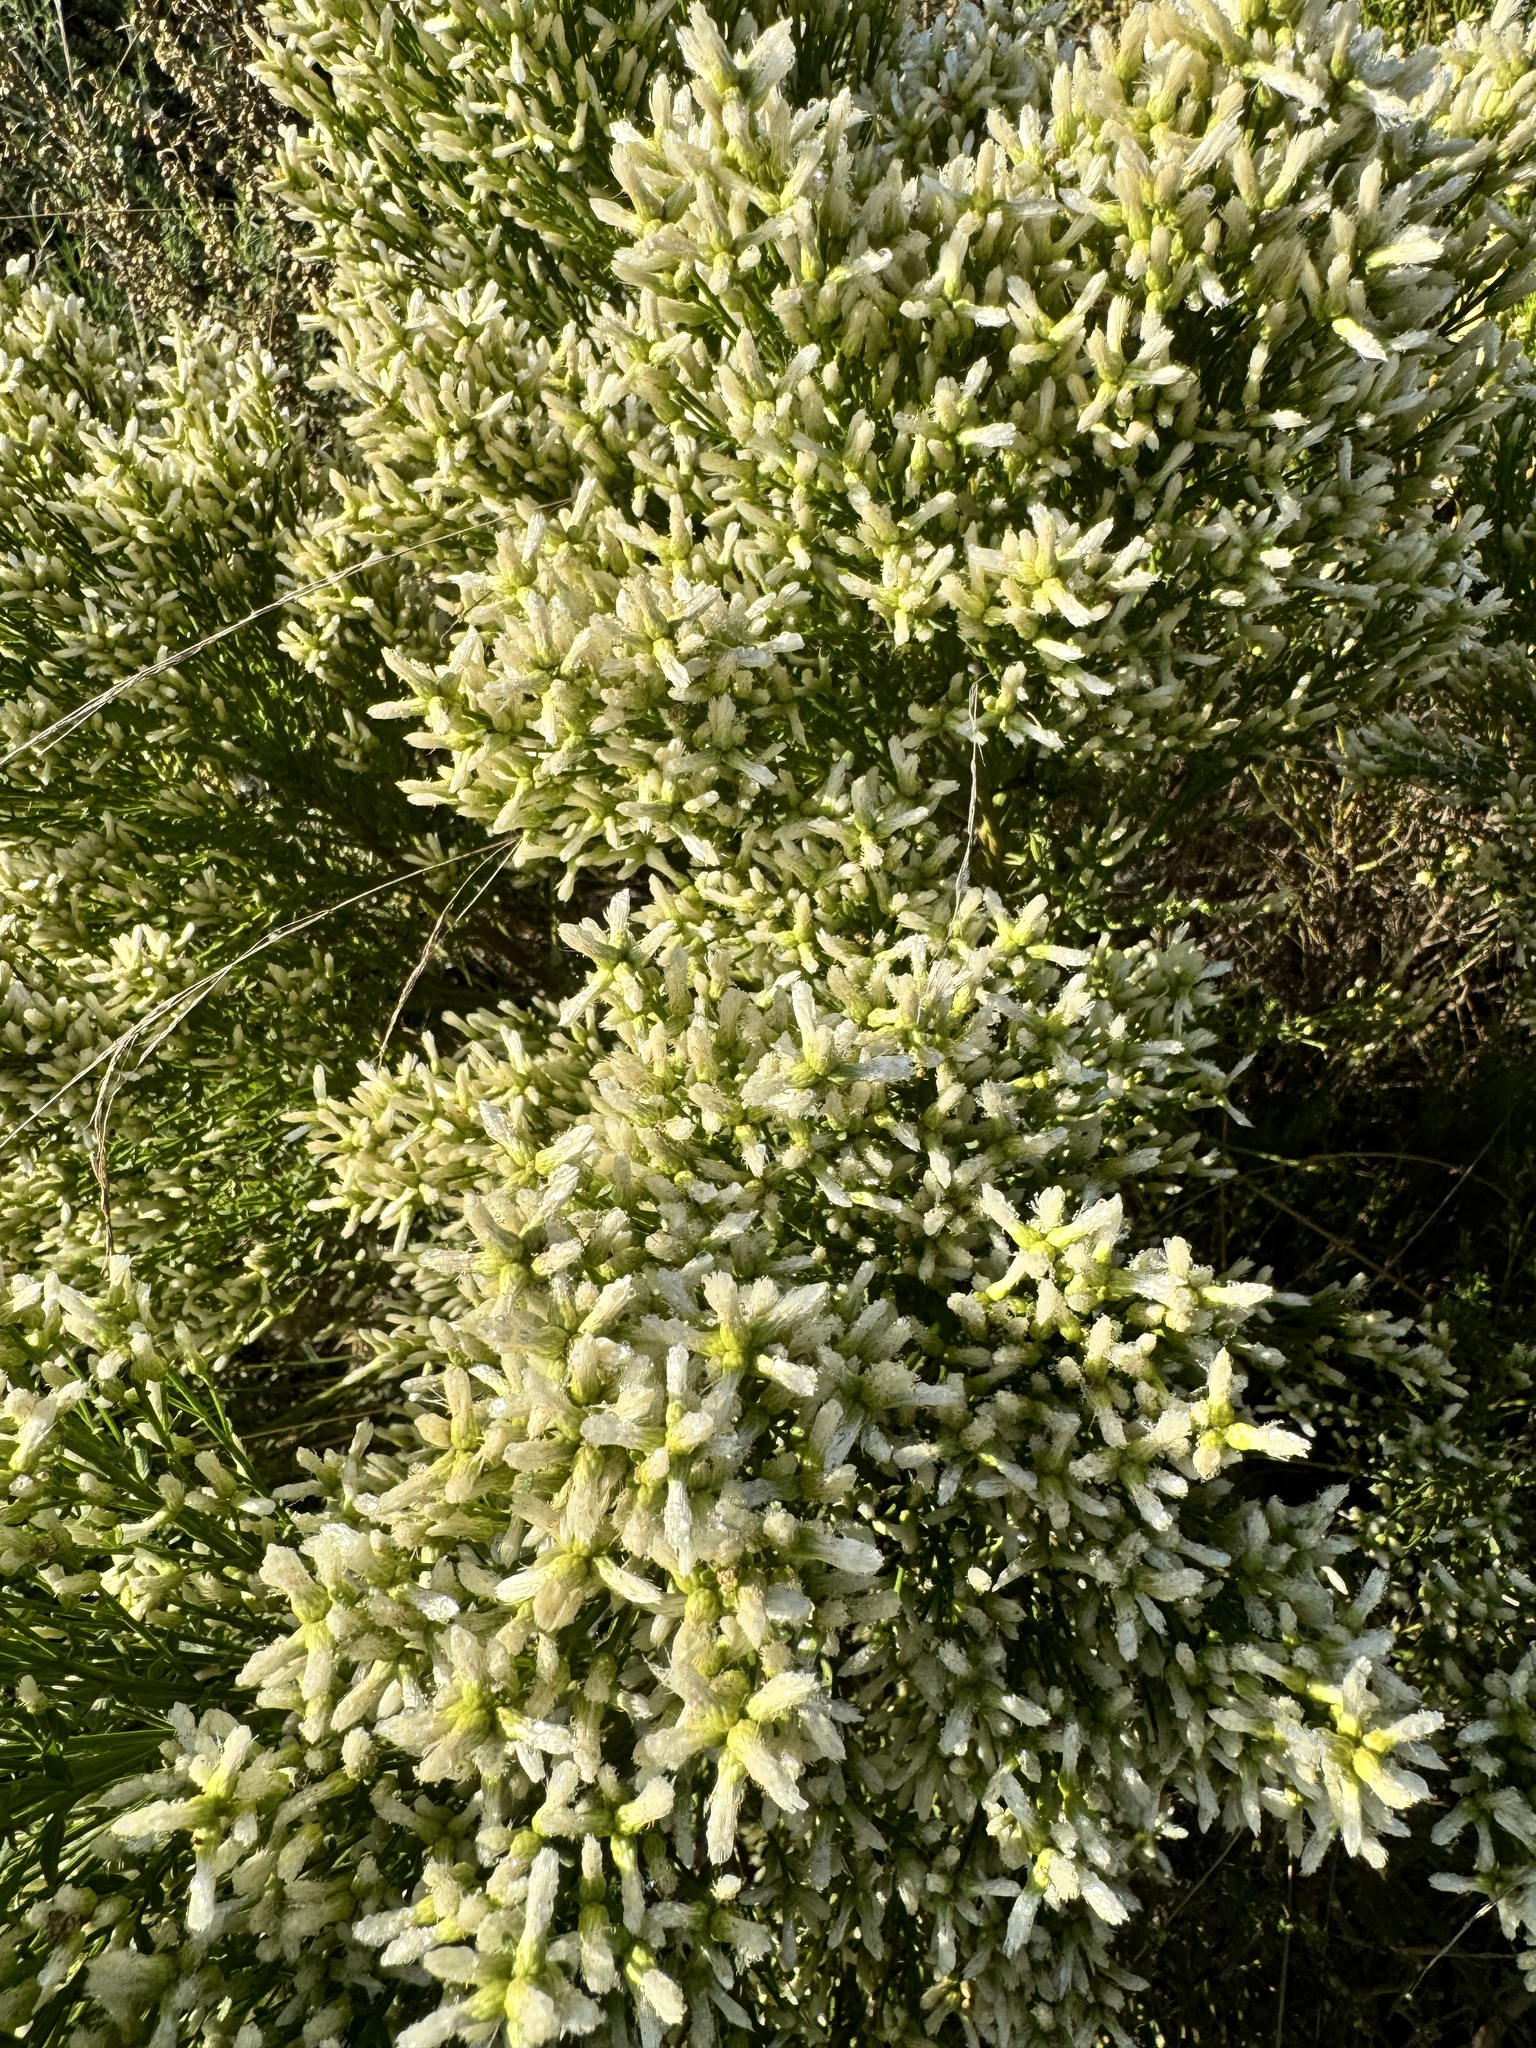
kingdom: Plantae
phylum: Tracheophyta
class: Magnoliopsida
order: Asterales
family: Asteraceae
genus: Baccharis
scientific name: Baccharis pilularis
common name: Coyotebrush
